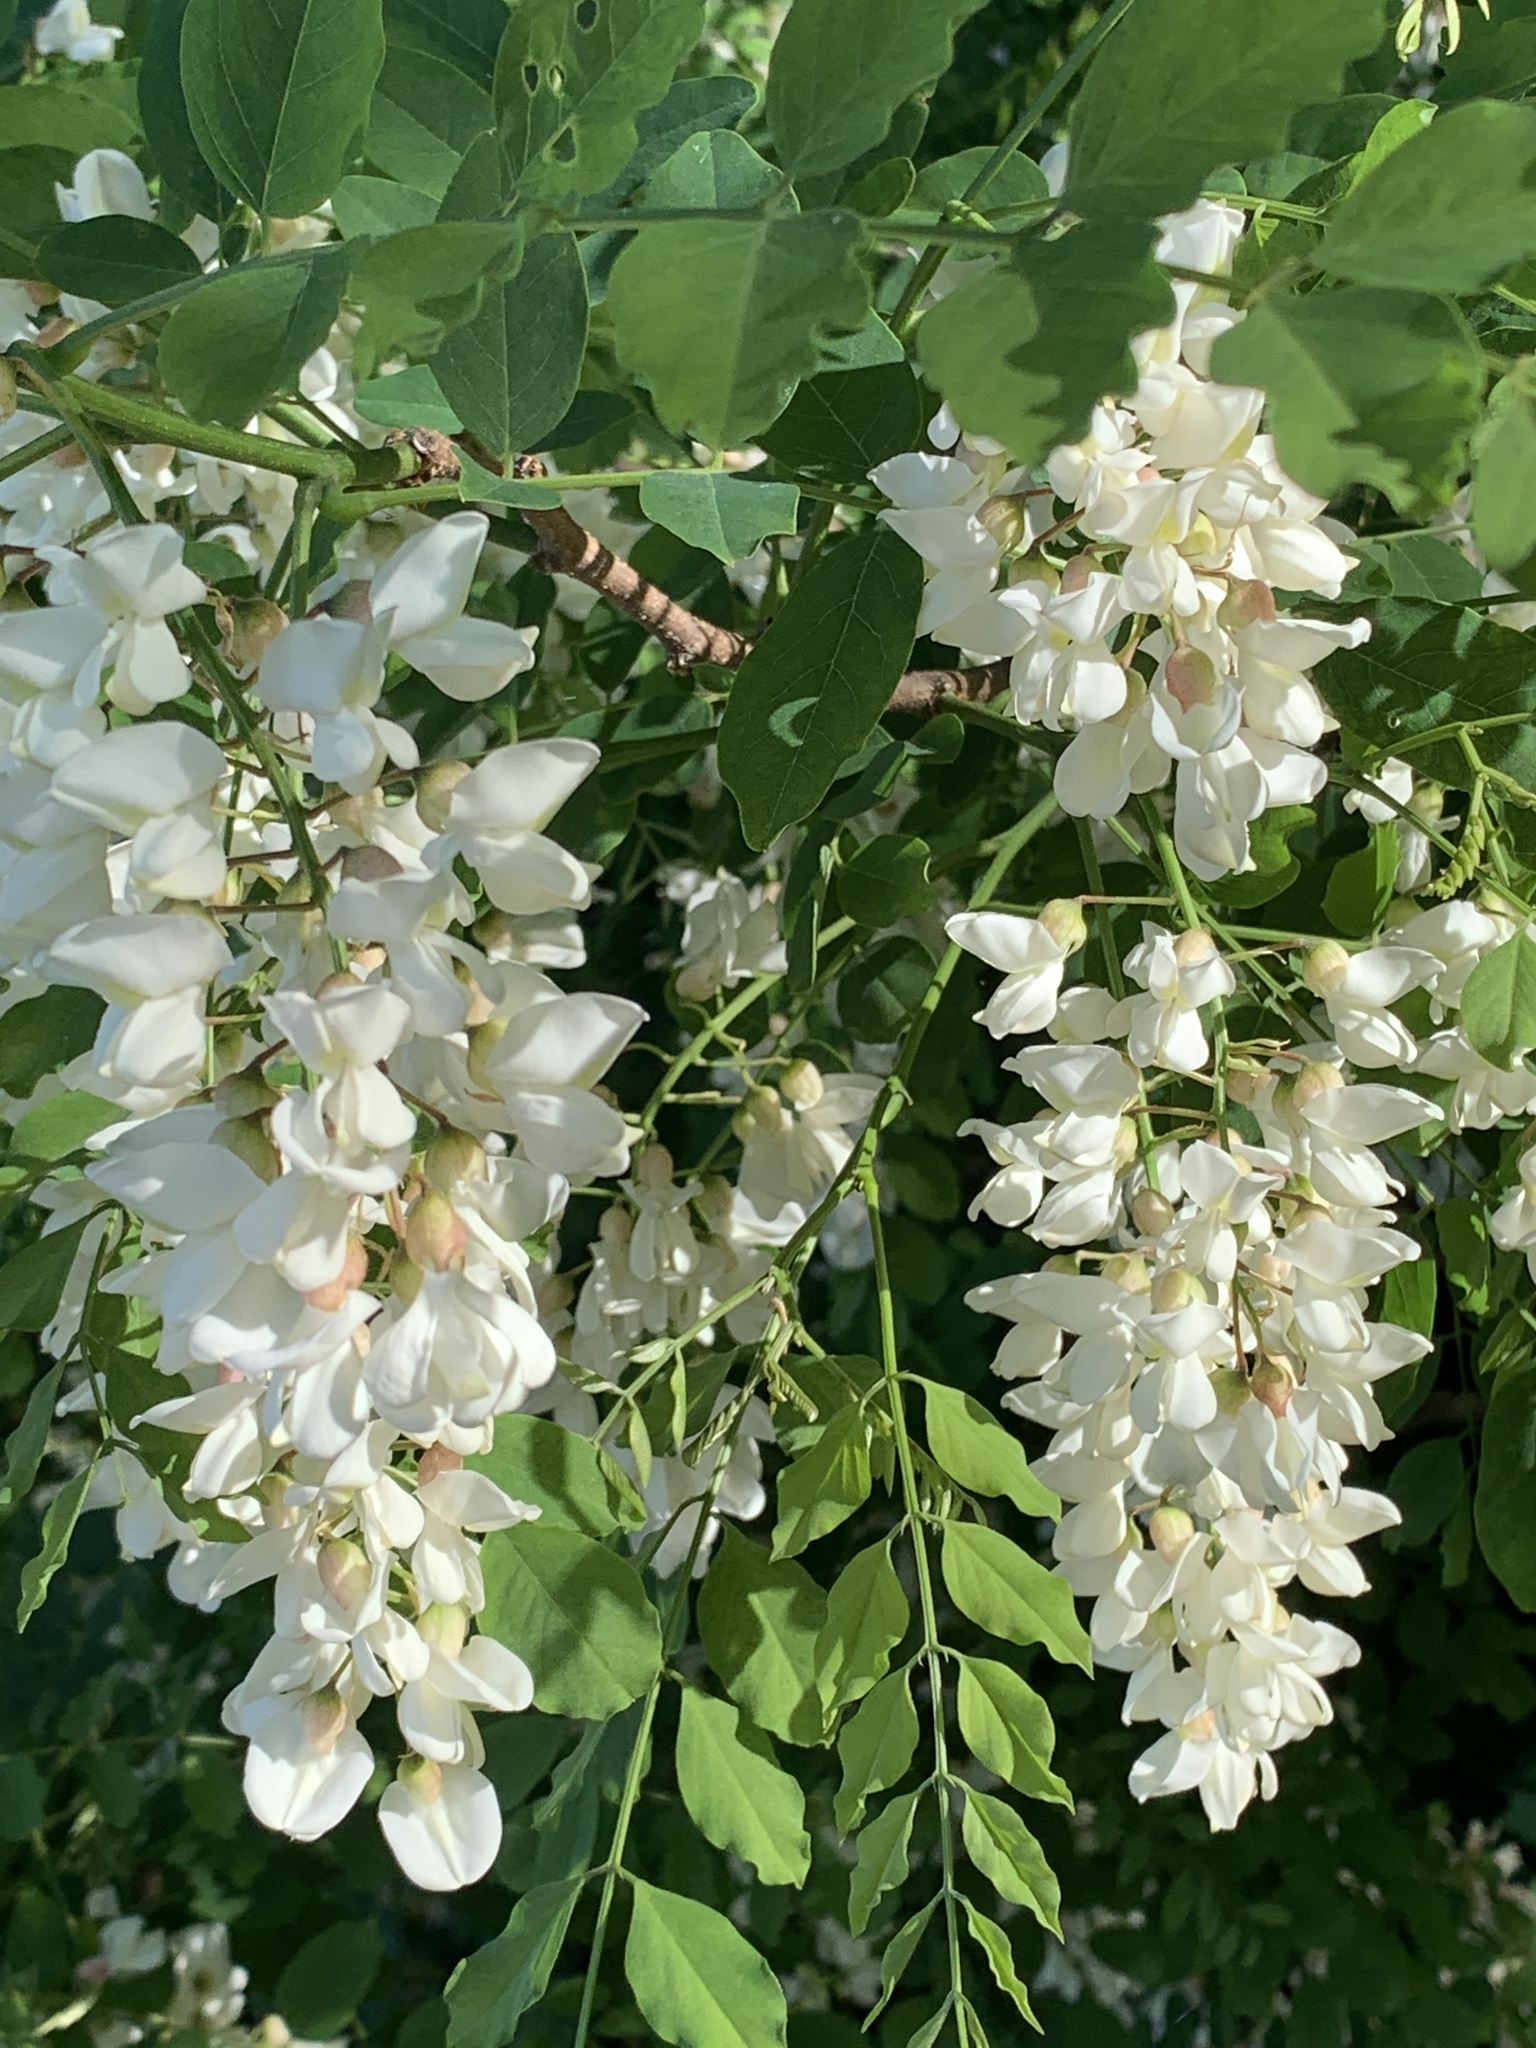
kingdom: Plantae
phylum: Tracheophyta
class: Magnoliopsida
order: Fabales
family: Fabaceae
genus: Robinia
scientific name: Robinia pseudoacacia
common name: Black locust
